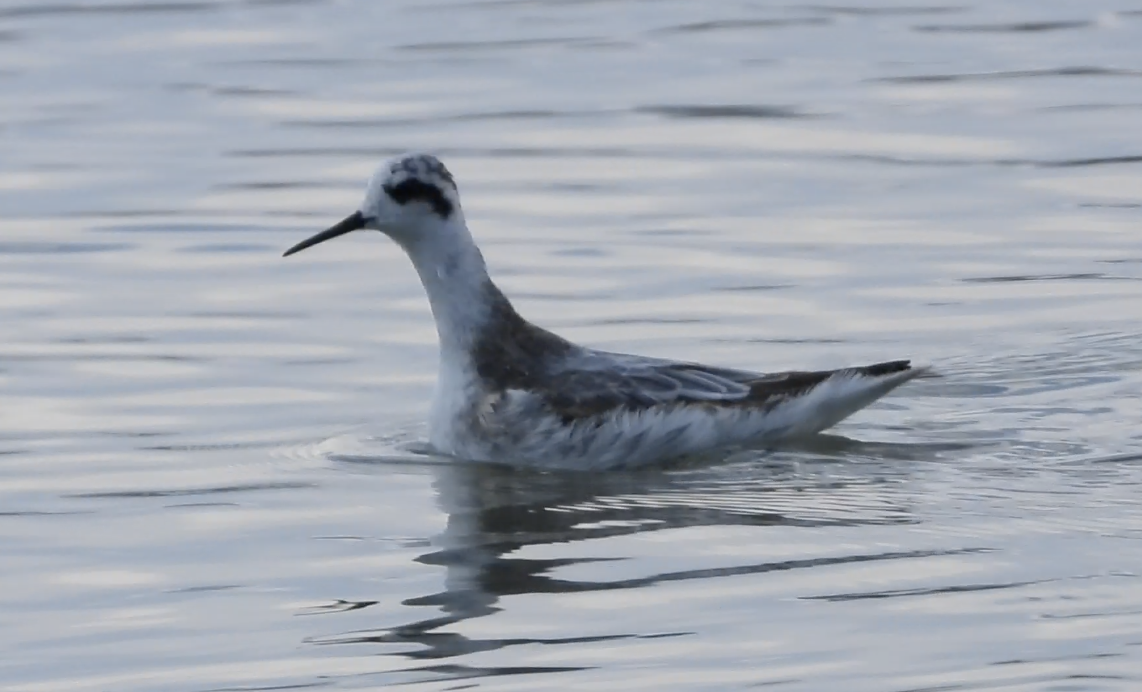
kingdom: Animalia
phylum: Chordata
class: Aves
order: Charadriiformes
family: Scolopacidae
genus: Phalaropus
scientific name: Phalaropus lobatus
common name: Red-necked phalarope
